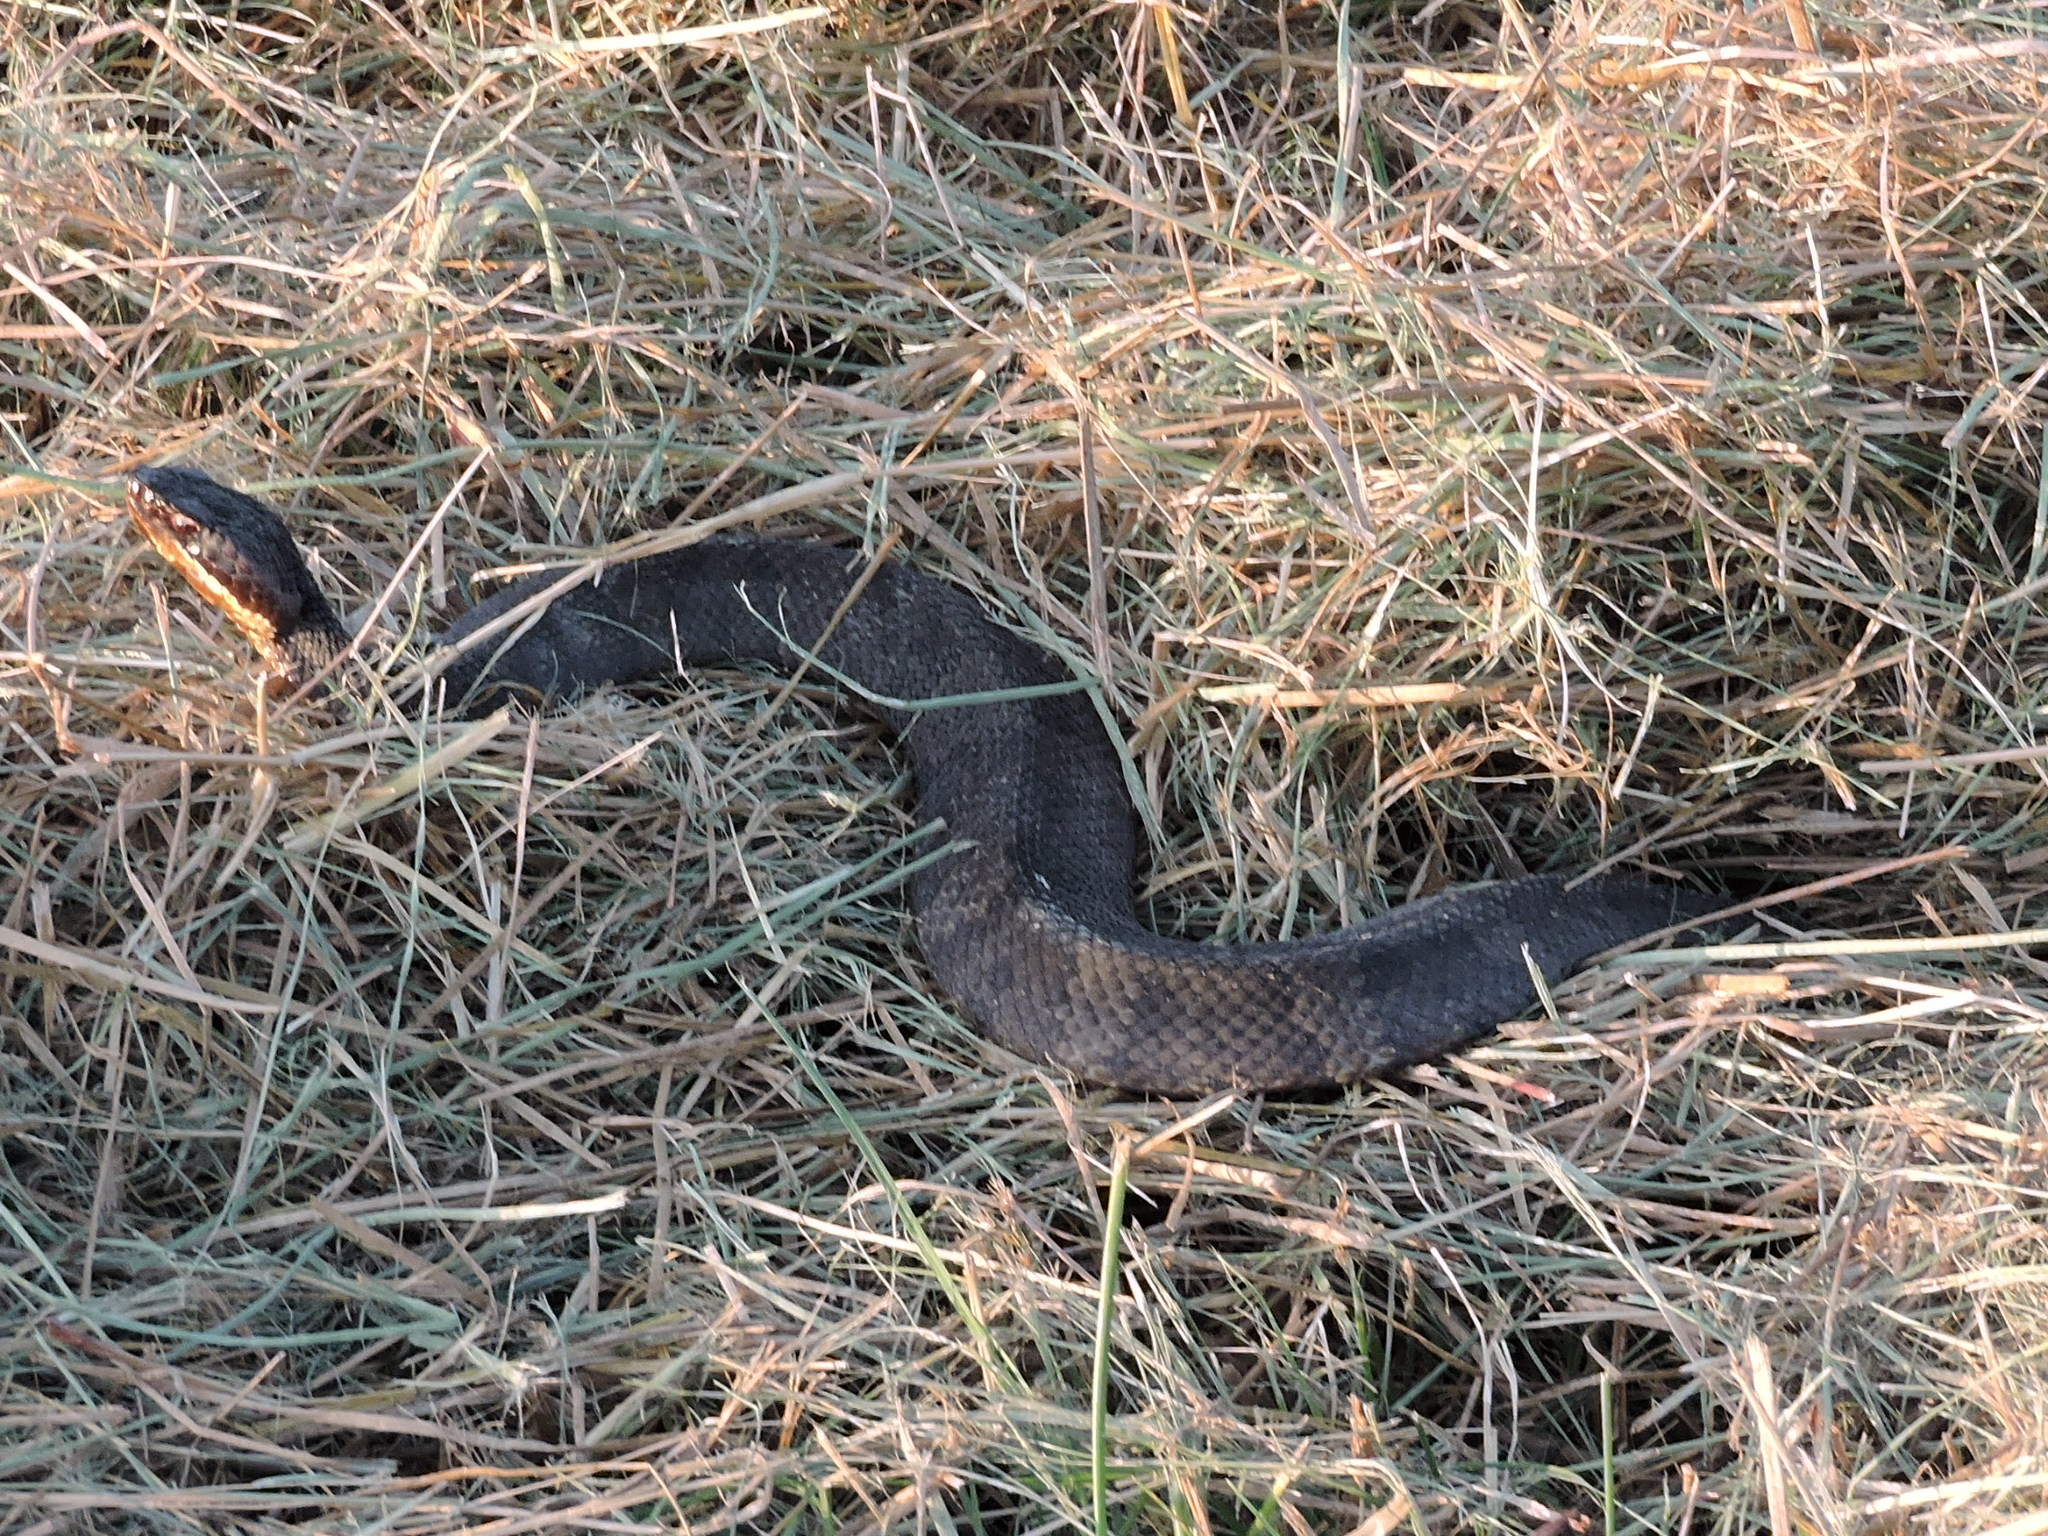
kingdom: Animalia
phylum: Chordata
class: Squamata
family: Viperidae
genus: Agkistrodon
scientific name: Agkistrodon piscivorus
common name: Cottonmouth
